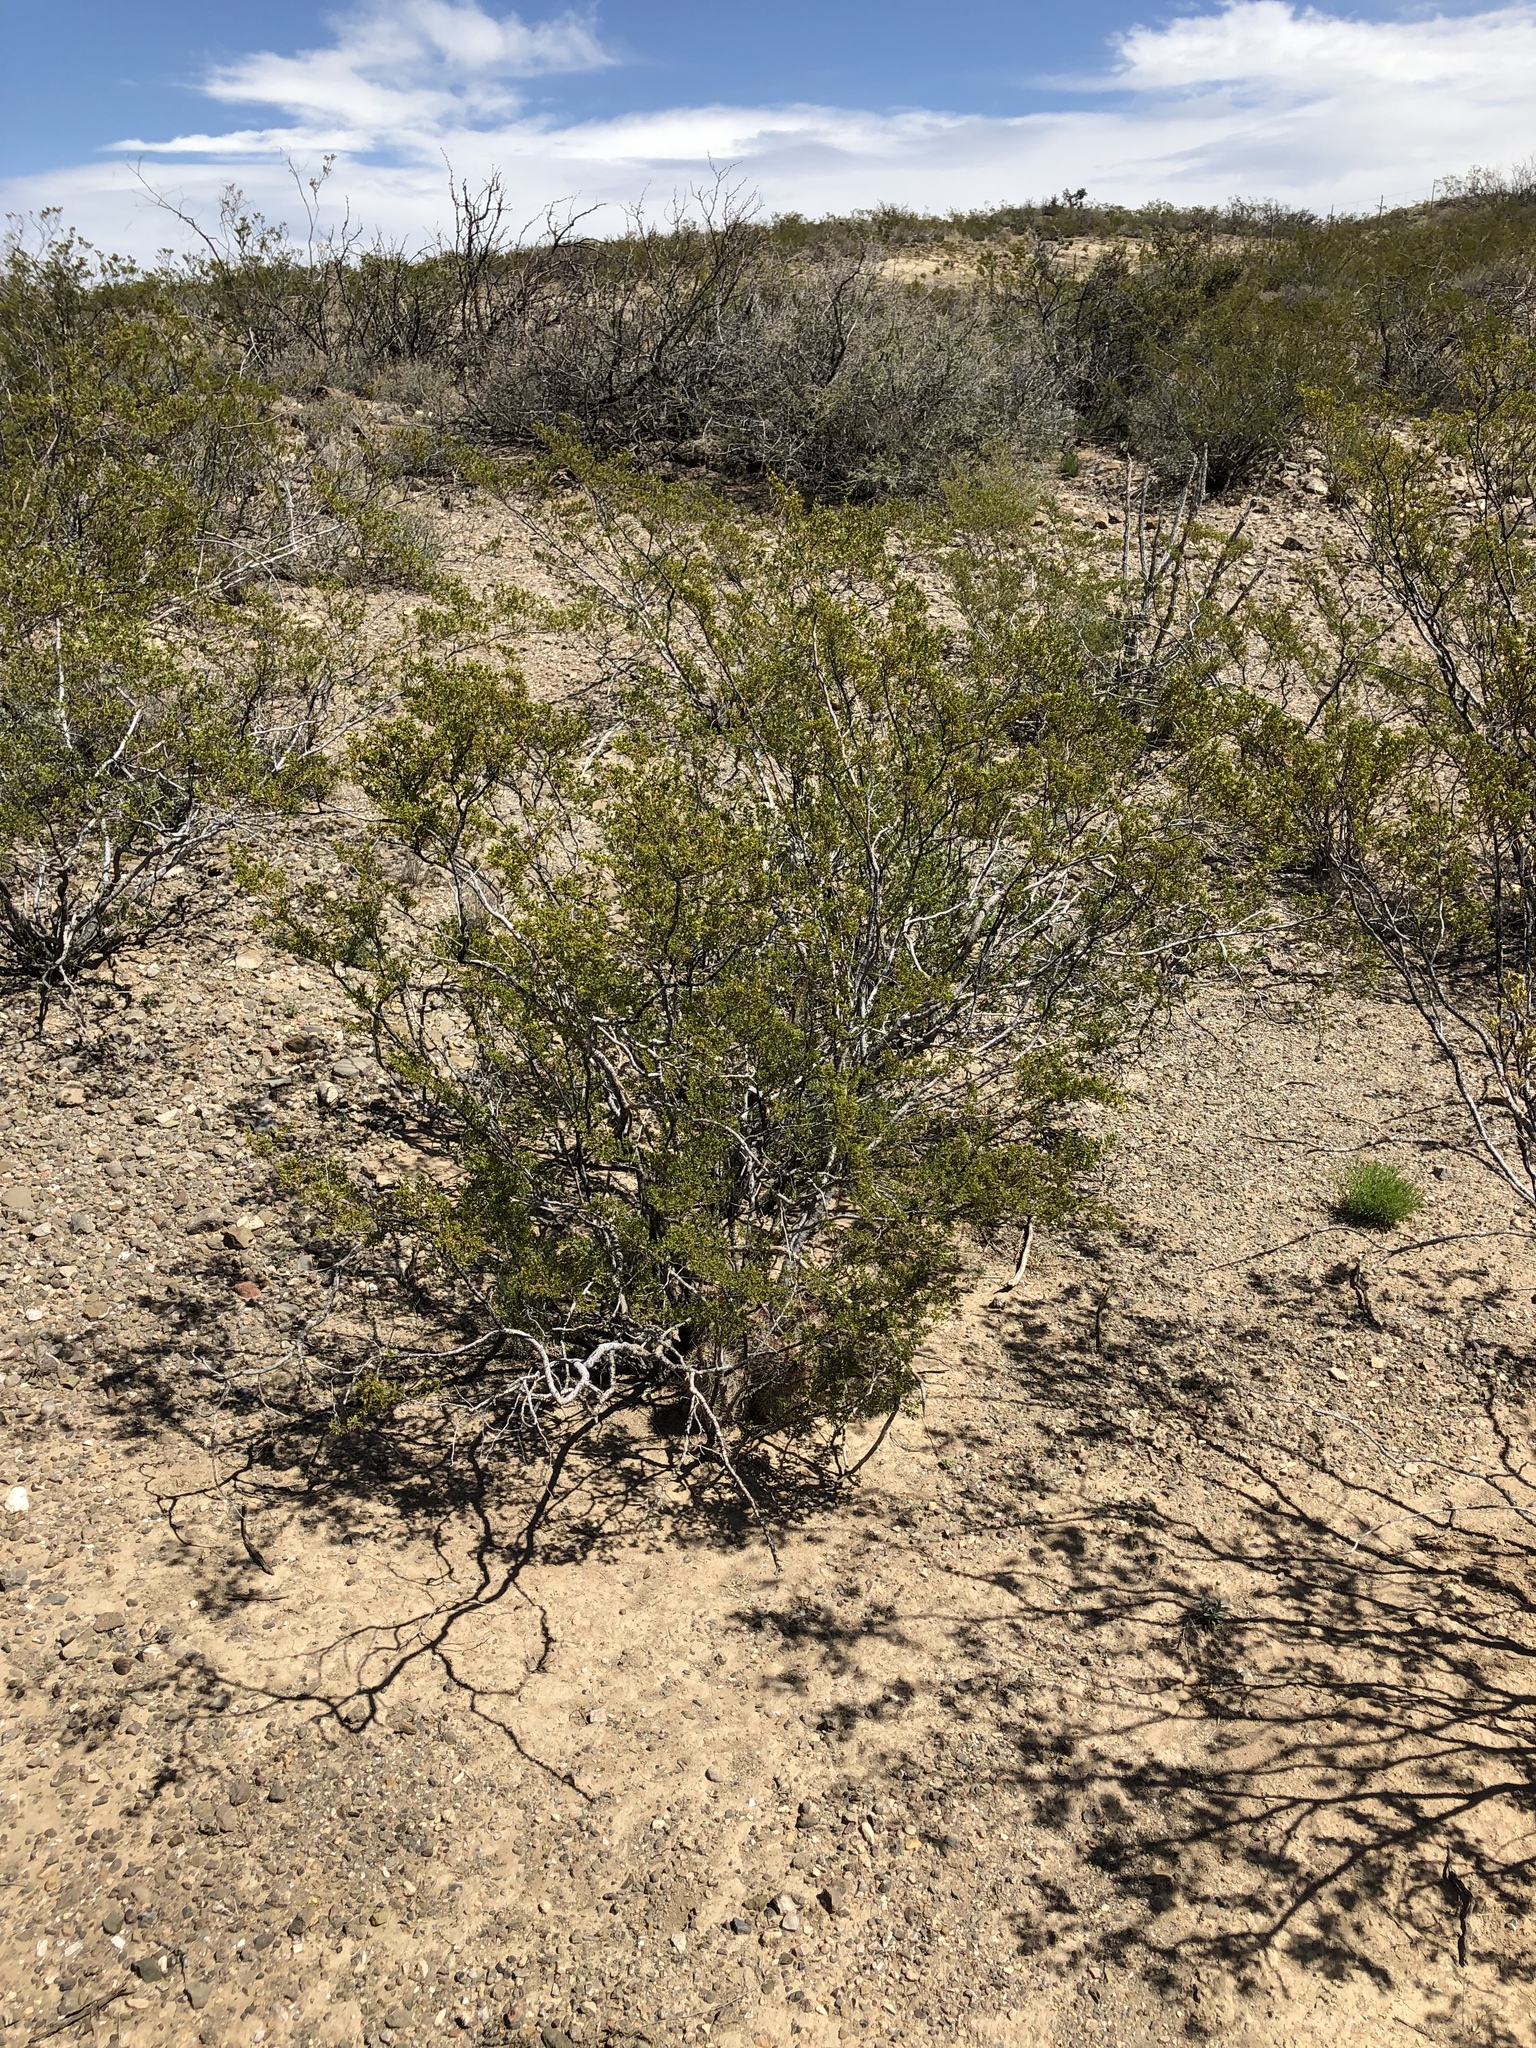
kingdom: Plantae
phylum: Tracheophyta
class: Magnoliopsida
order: Zygophyllales
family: Zygophyllaceae
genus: Larrea
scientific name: Larrea tridentata
